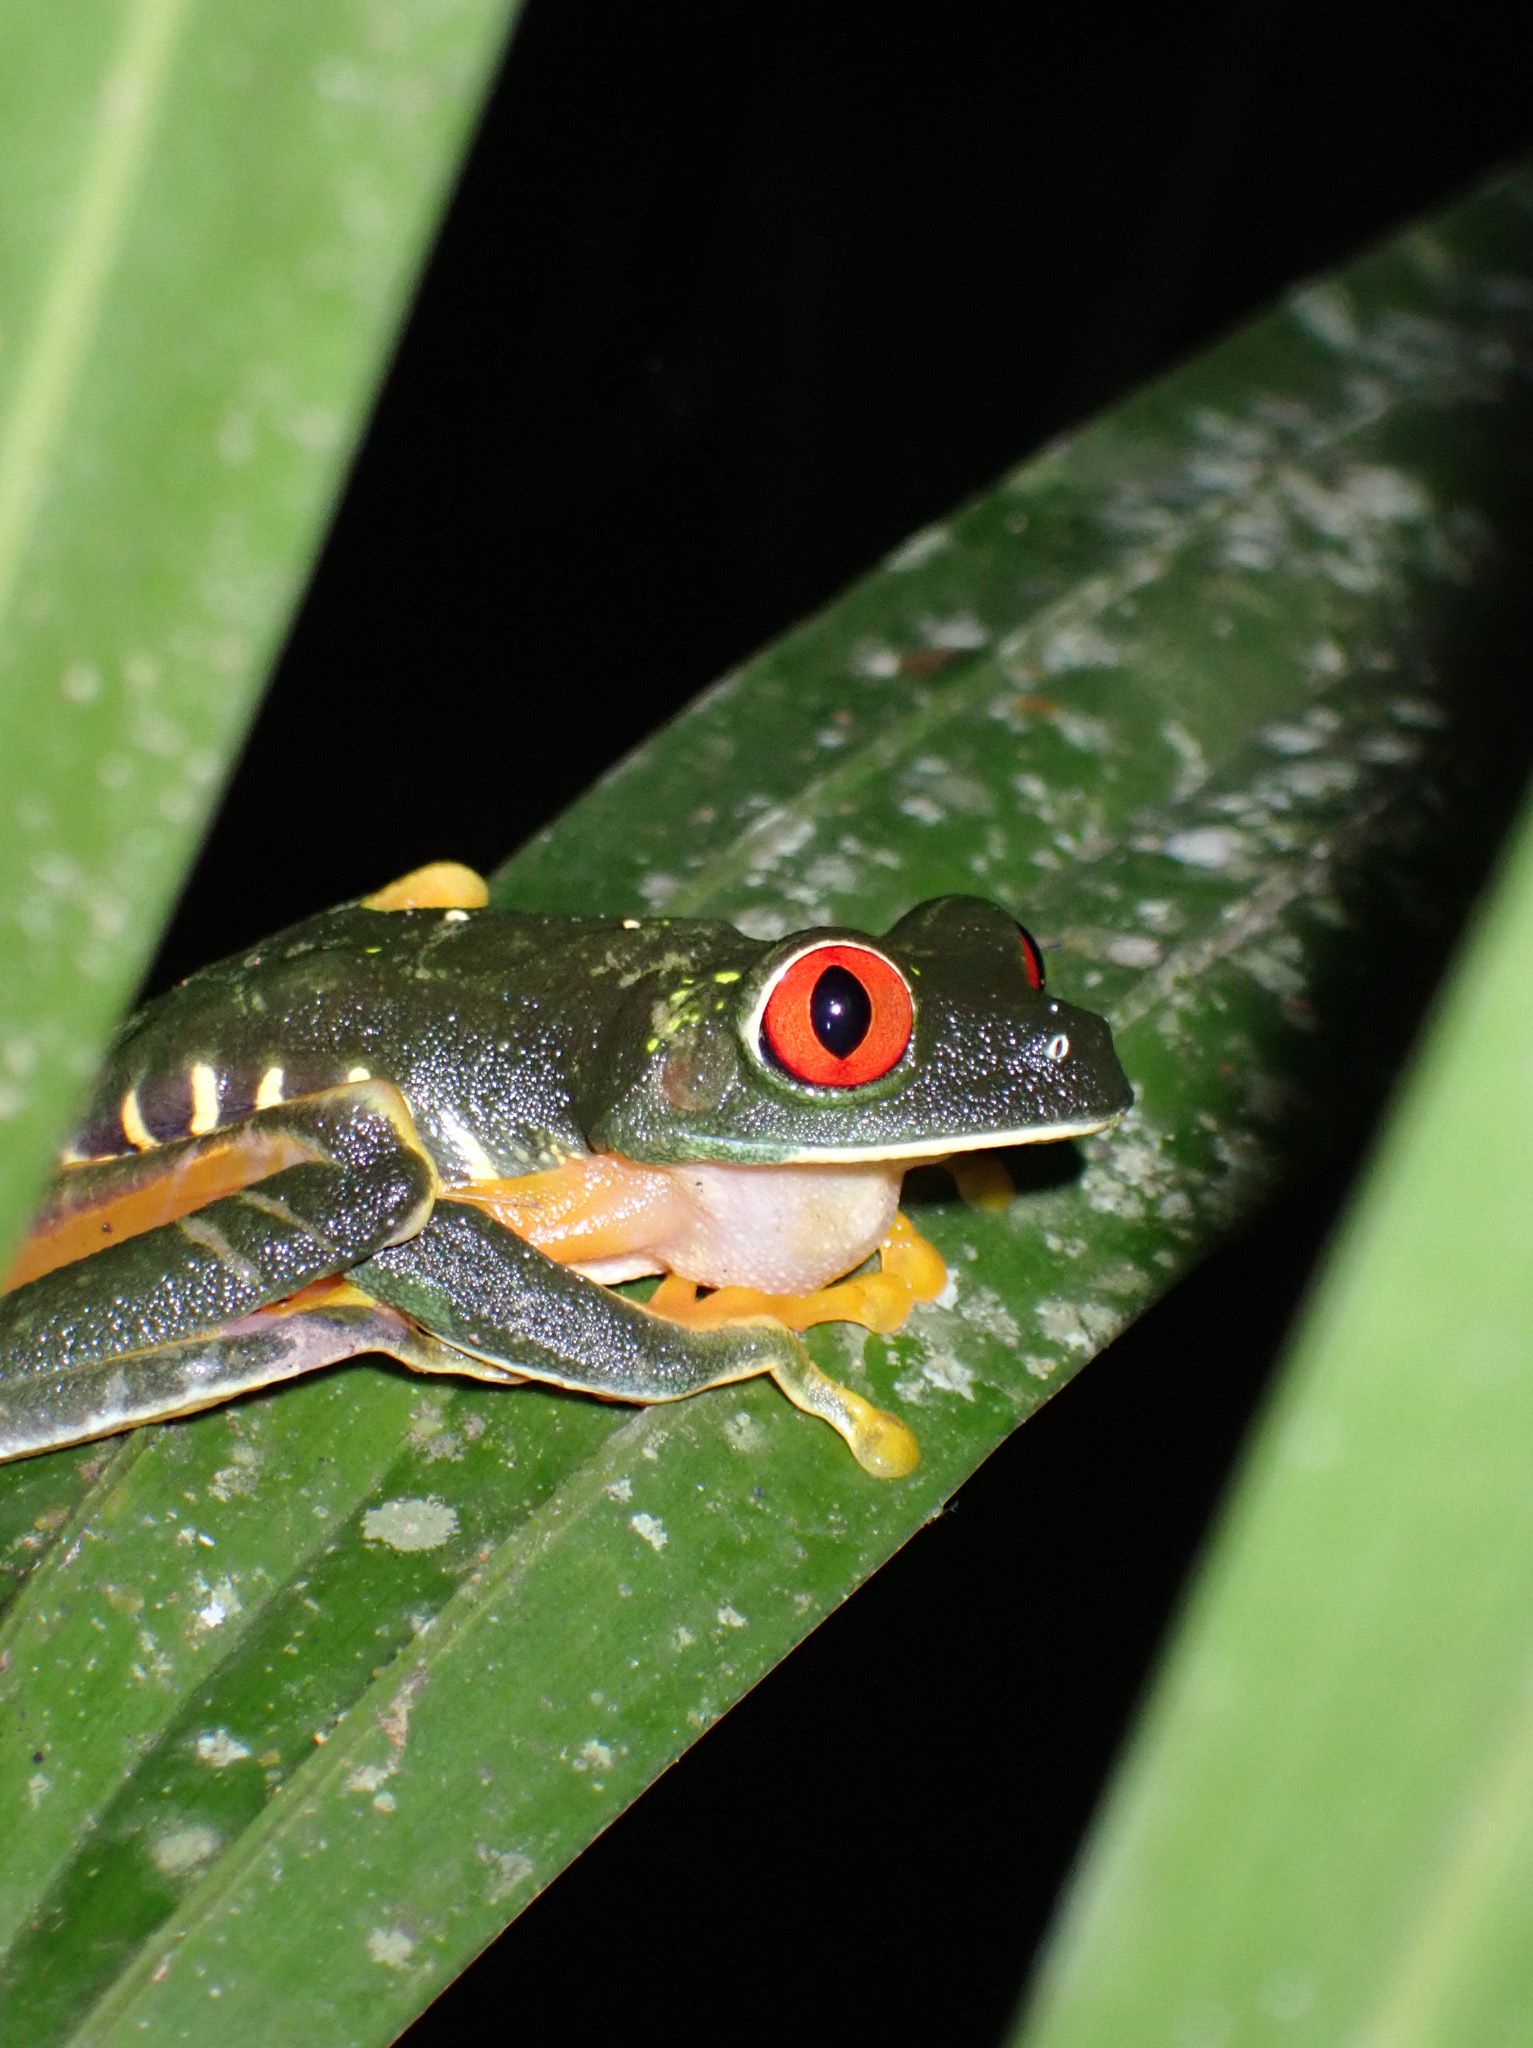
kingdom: Animalia
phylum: Chordata
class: Amphibia
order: Anura
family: Phyllomedusidae
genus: Agalychnis
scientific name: Agalychnis
